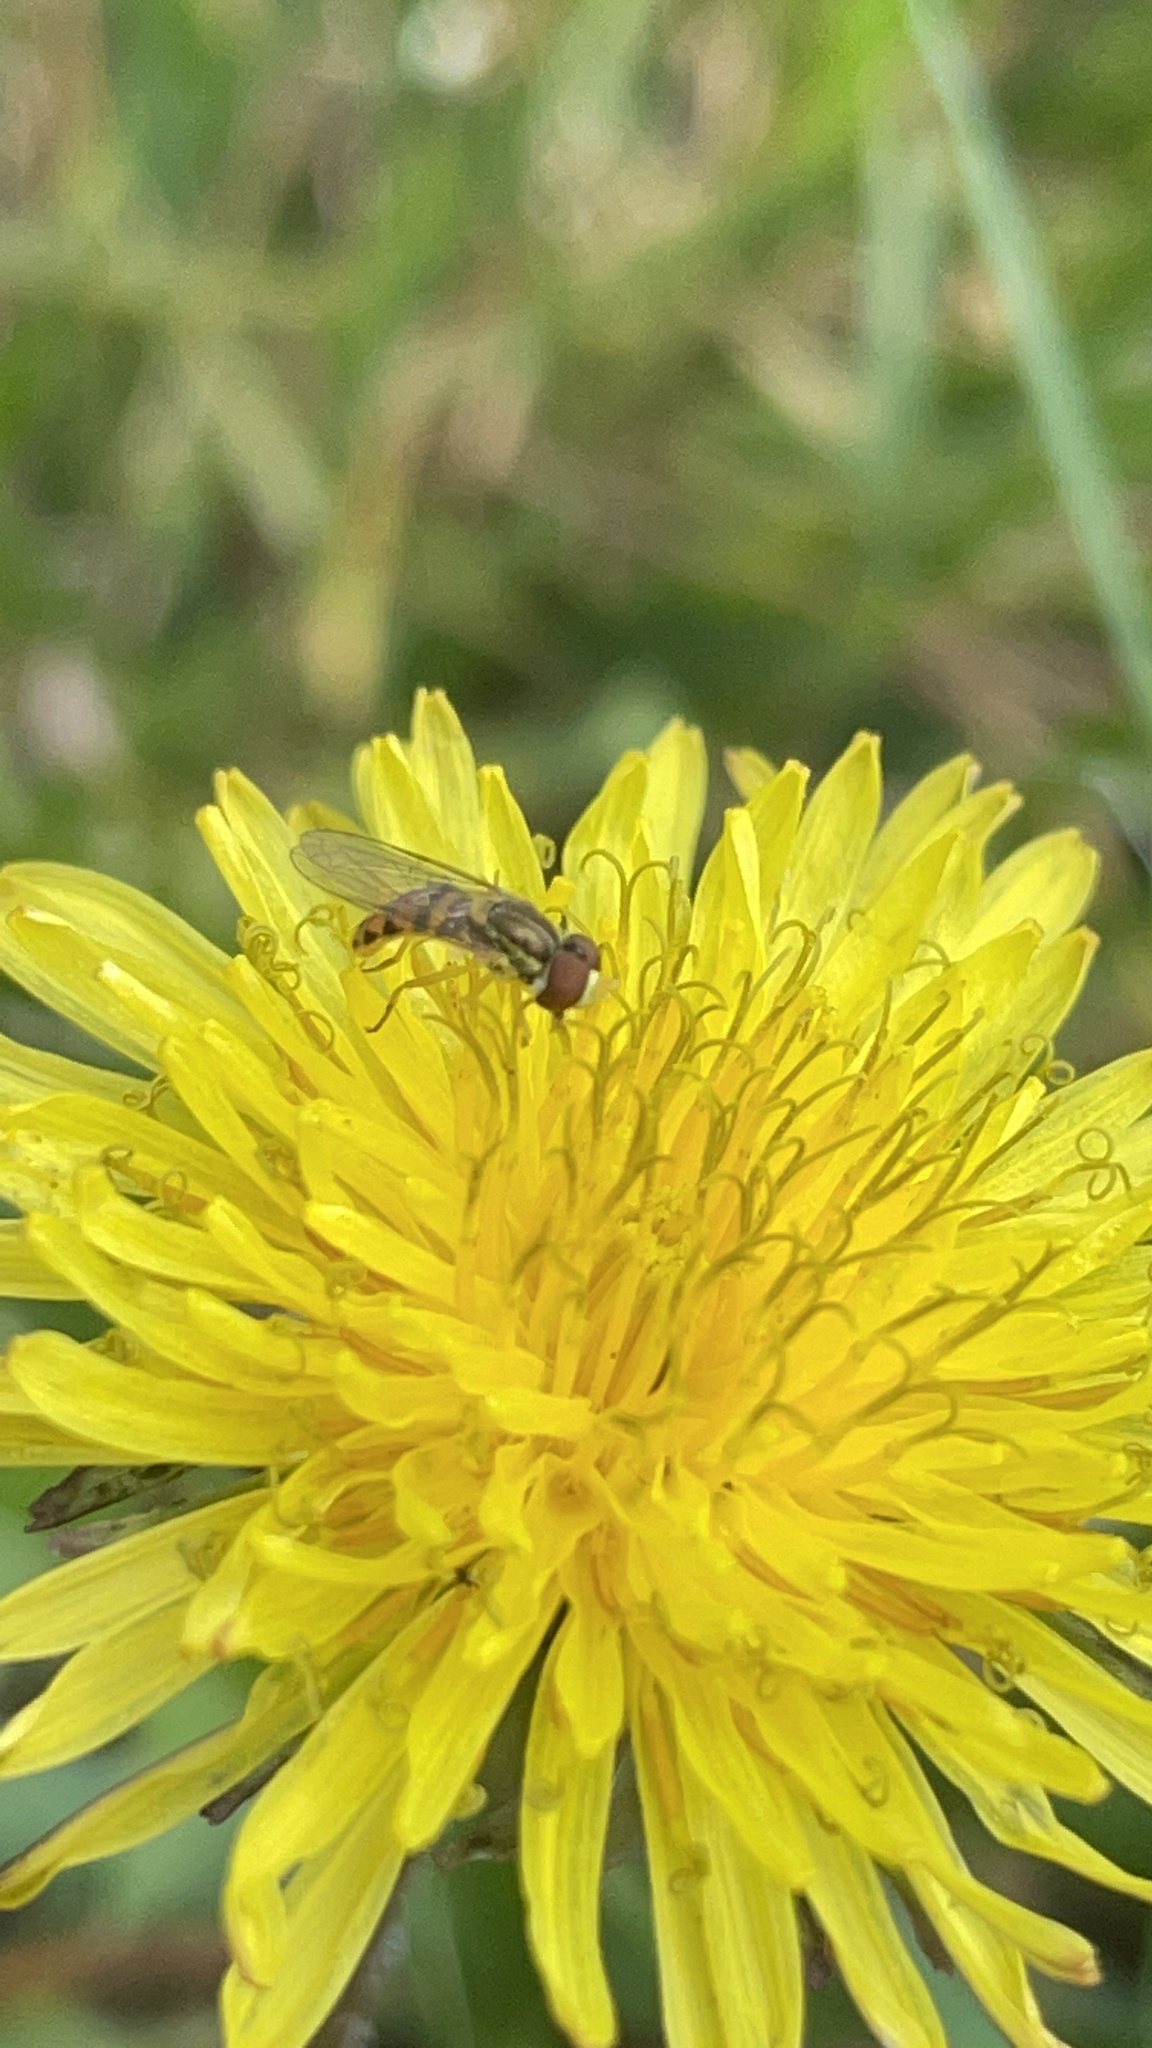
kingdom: Animalia
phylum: Arthropoda
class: Insecta
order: Diptera
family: Syrphidae
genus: Toxomerus
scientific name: Toxomerus marginatus
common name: Syrphid fly
